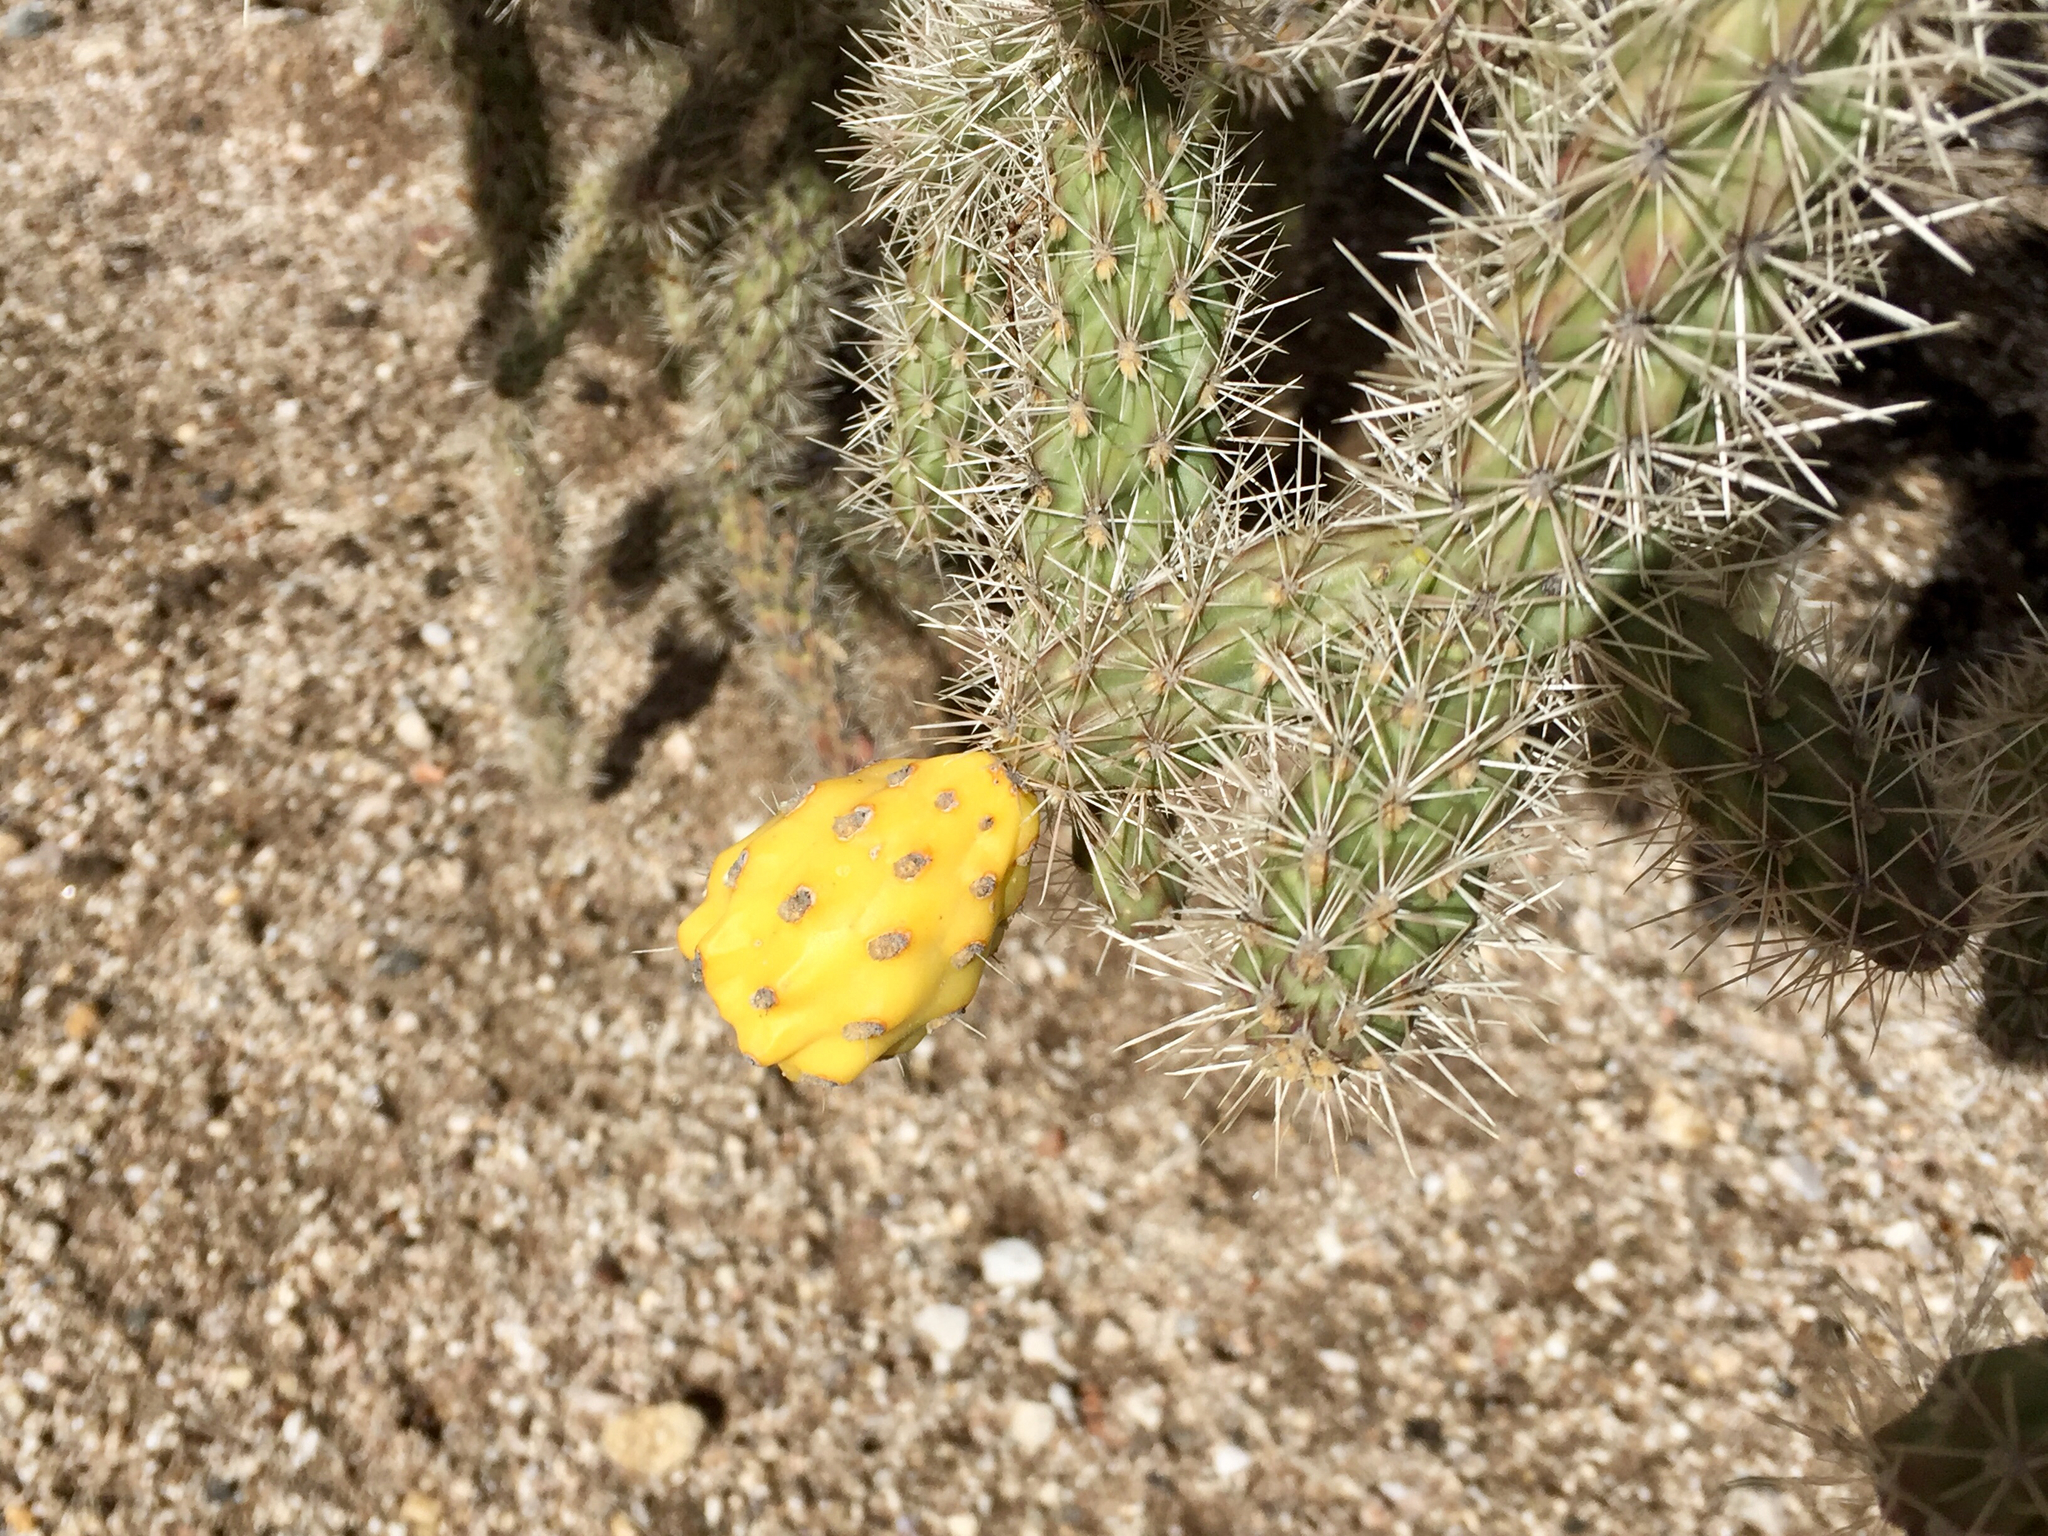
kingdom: Plantae
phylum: Tracheophyta
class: Magnoliopsida
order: Caryophyllales
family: Cactaceae
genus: Cylindropuntia
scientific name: Cylindropuntia imbricata
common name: Candelabrum cactus
